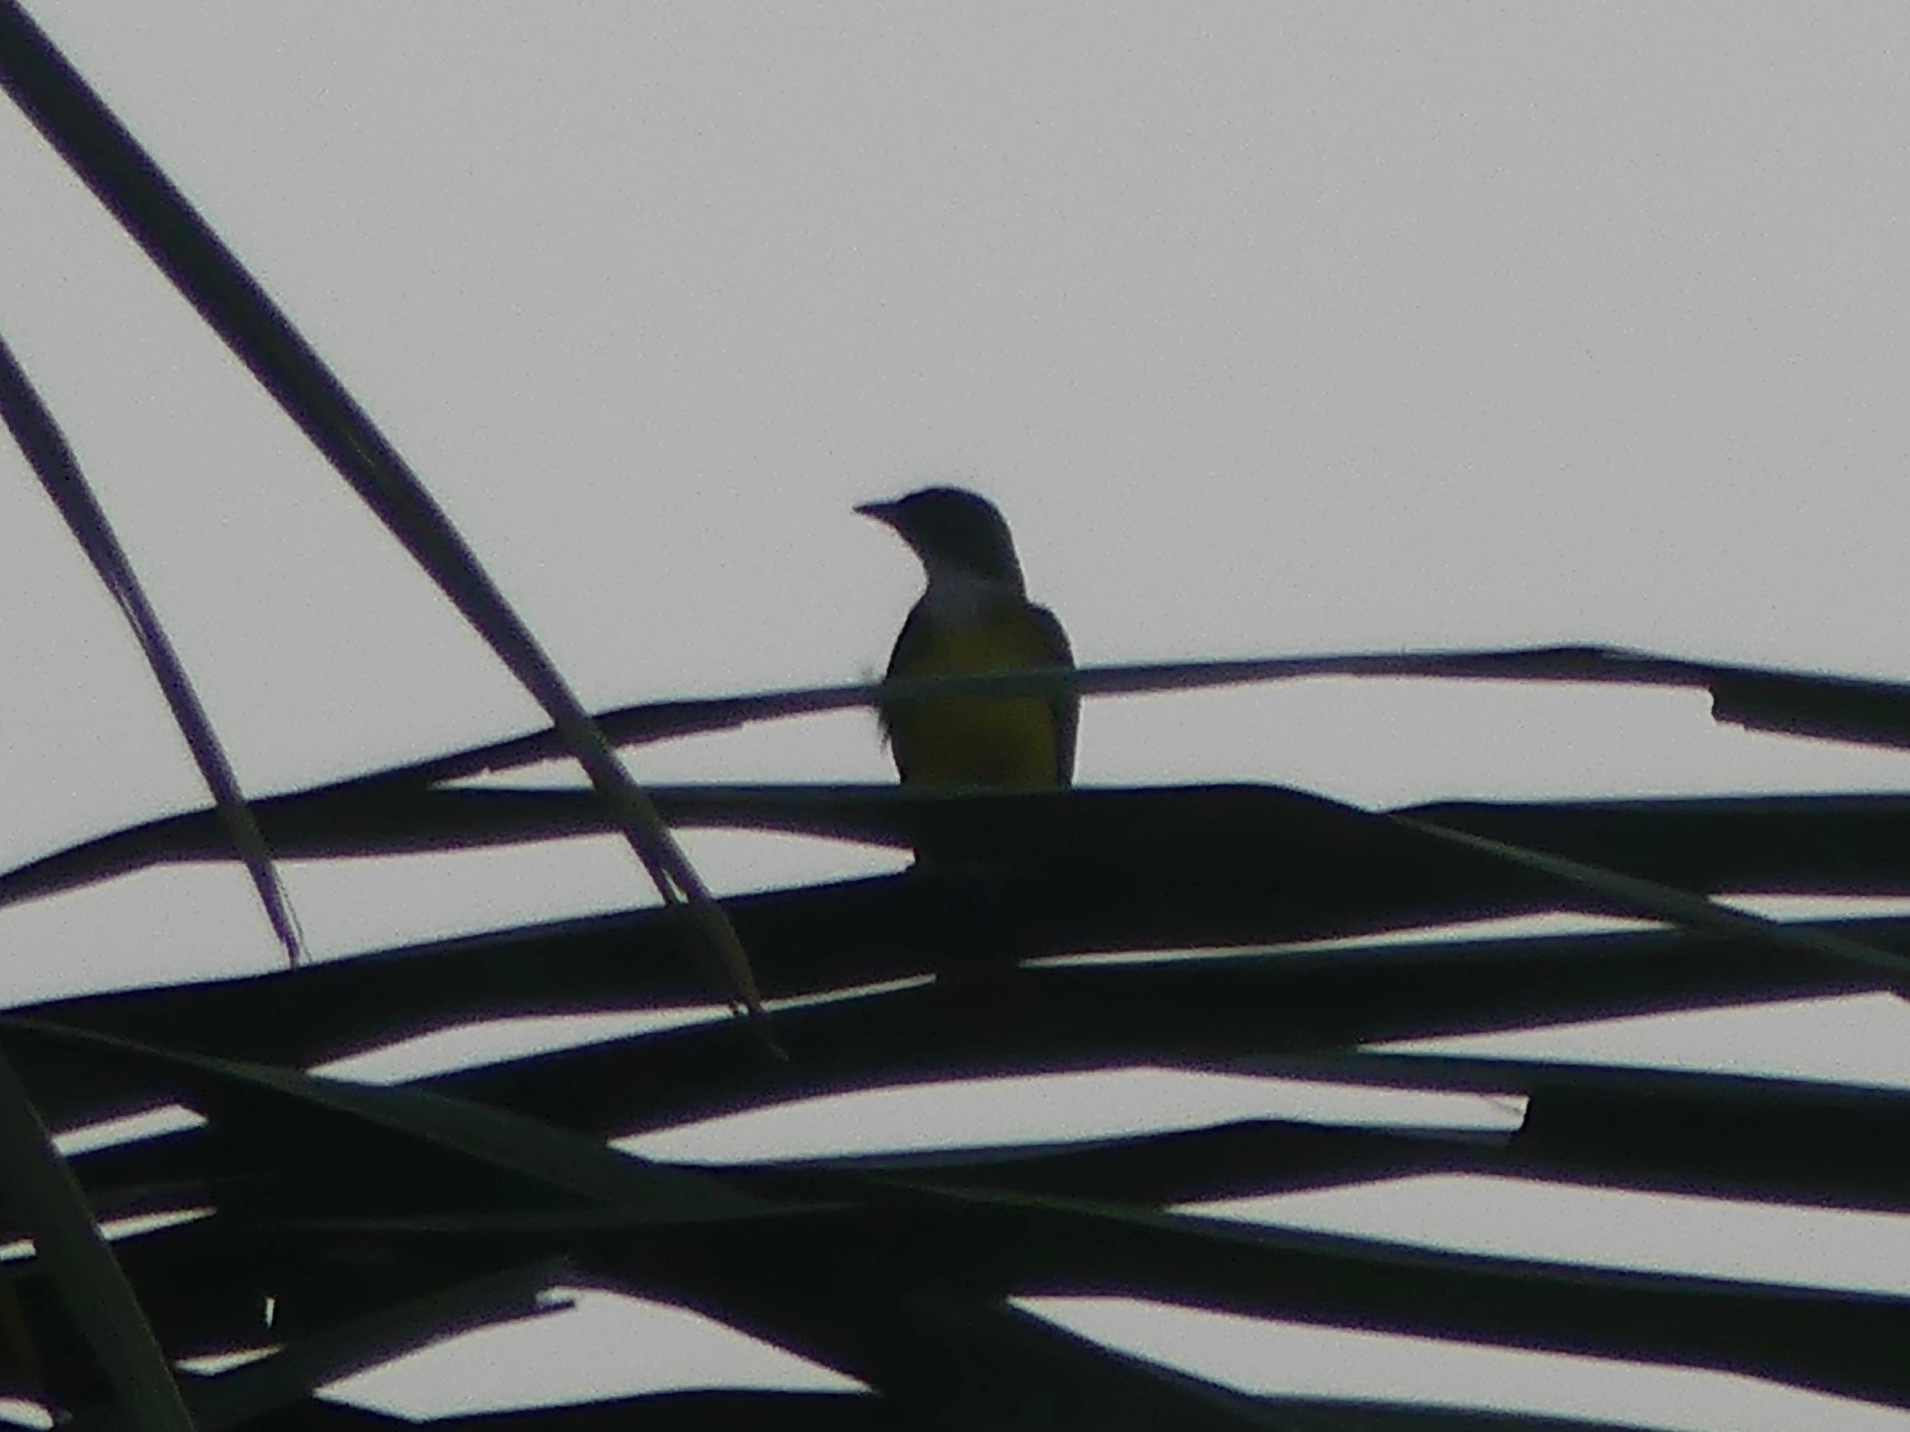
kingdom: Animalia
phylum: Chordata
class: Aves
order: Passeriformes
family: Tyrannidae
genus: Tyrannopsis
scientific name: Tyrannopsis sulphurea
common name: Sulphury flycatcher
